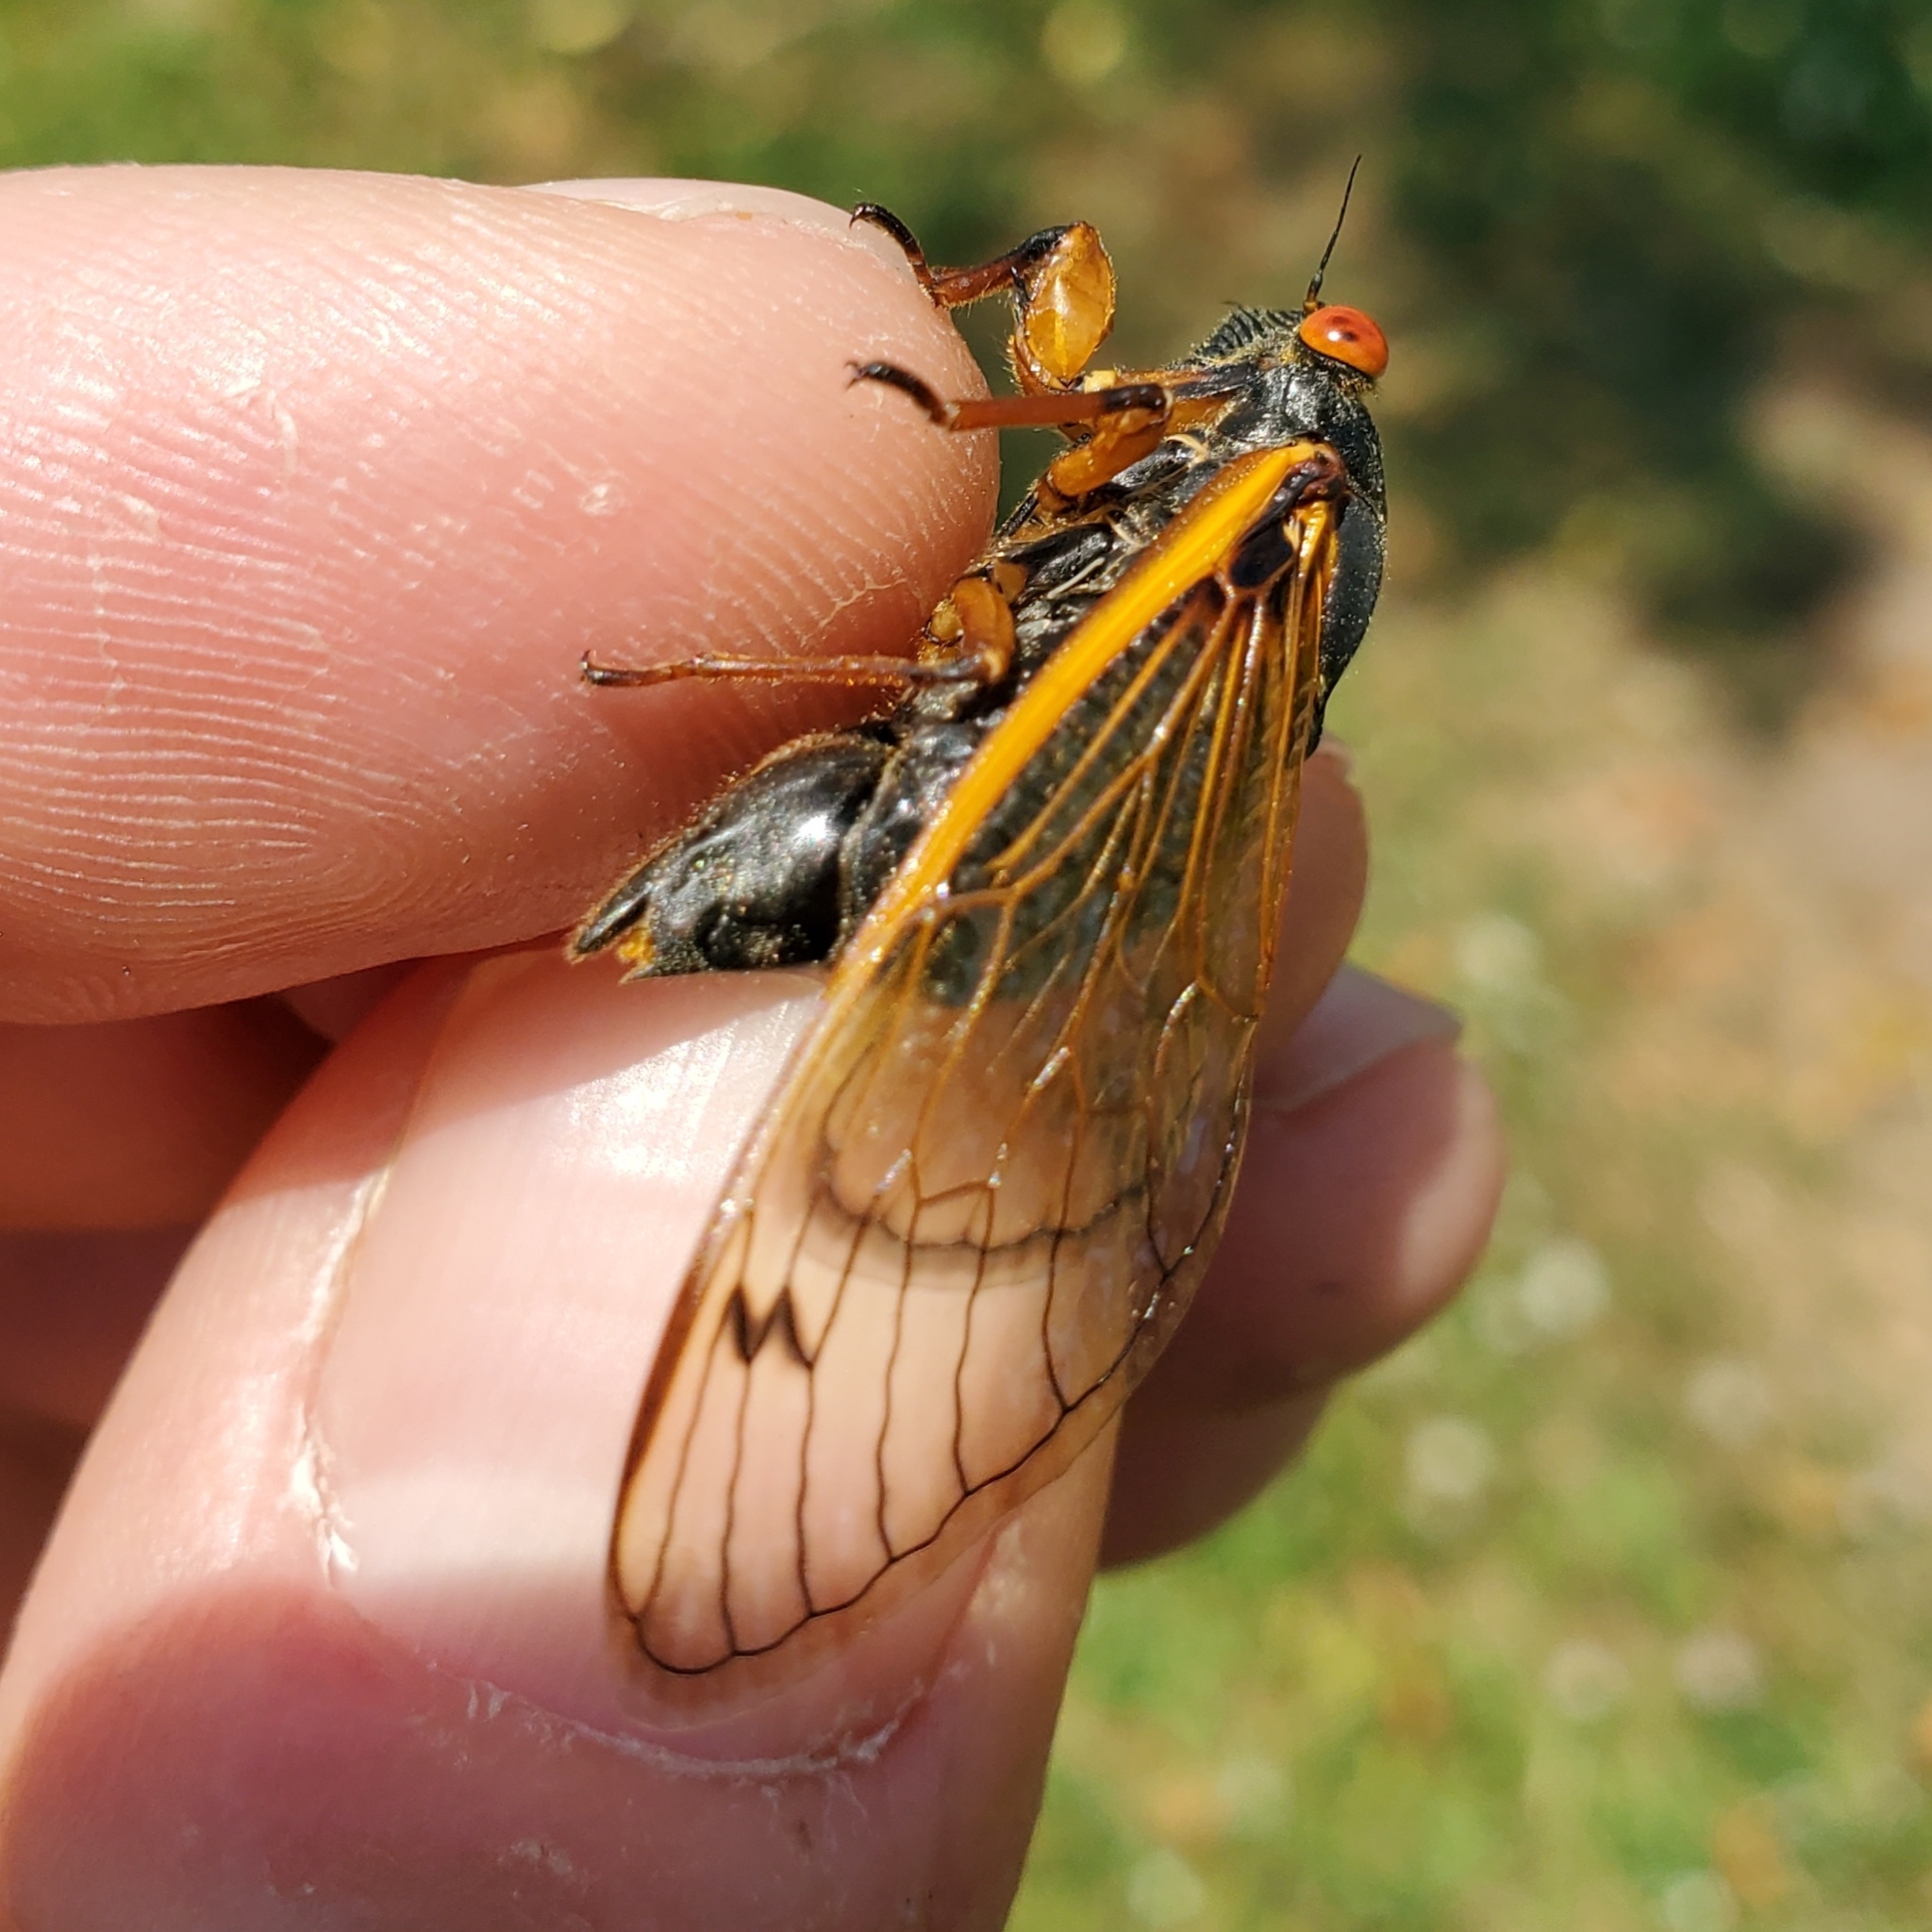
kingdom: Animalia
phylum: Arthropoda
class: Insecta
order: Hemiptera
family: Cicadidae
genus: Magicicada
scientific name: Magicicada cassini
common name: Cassin's 17-year cicada
